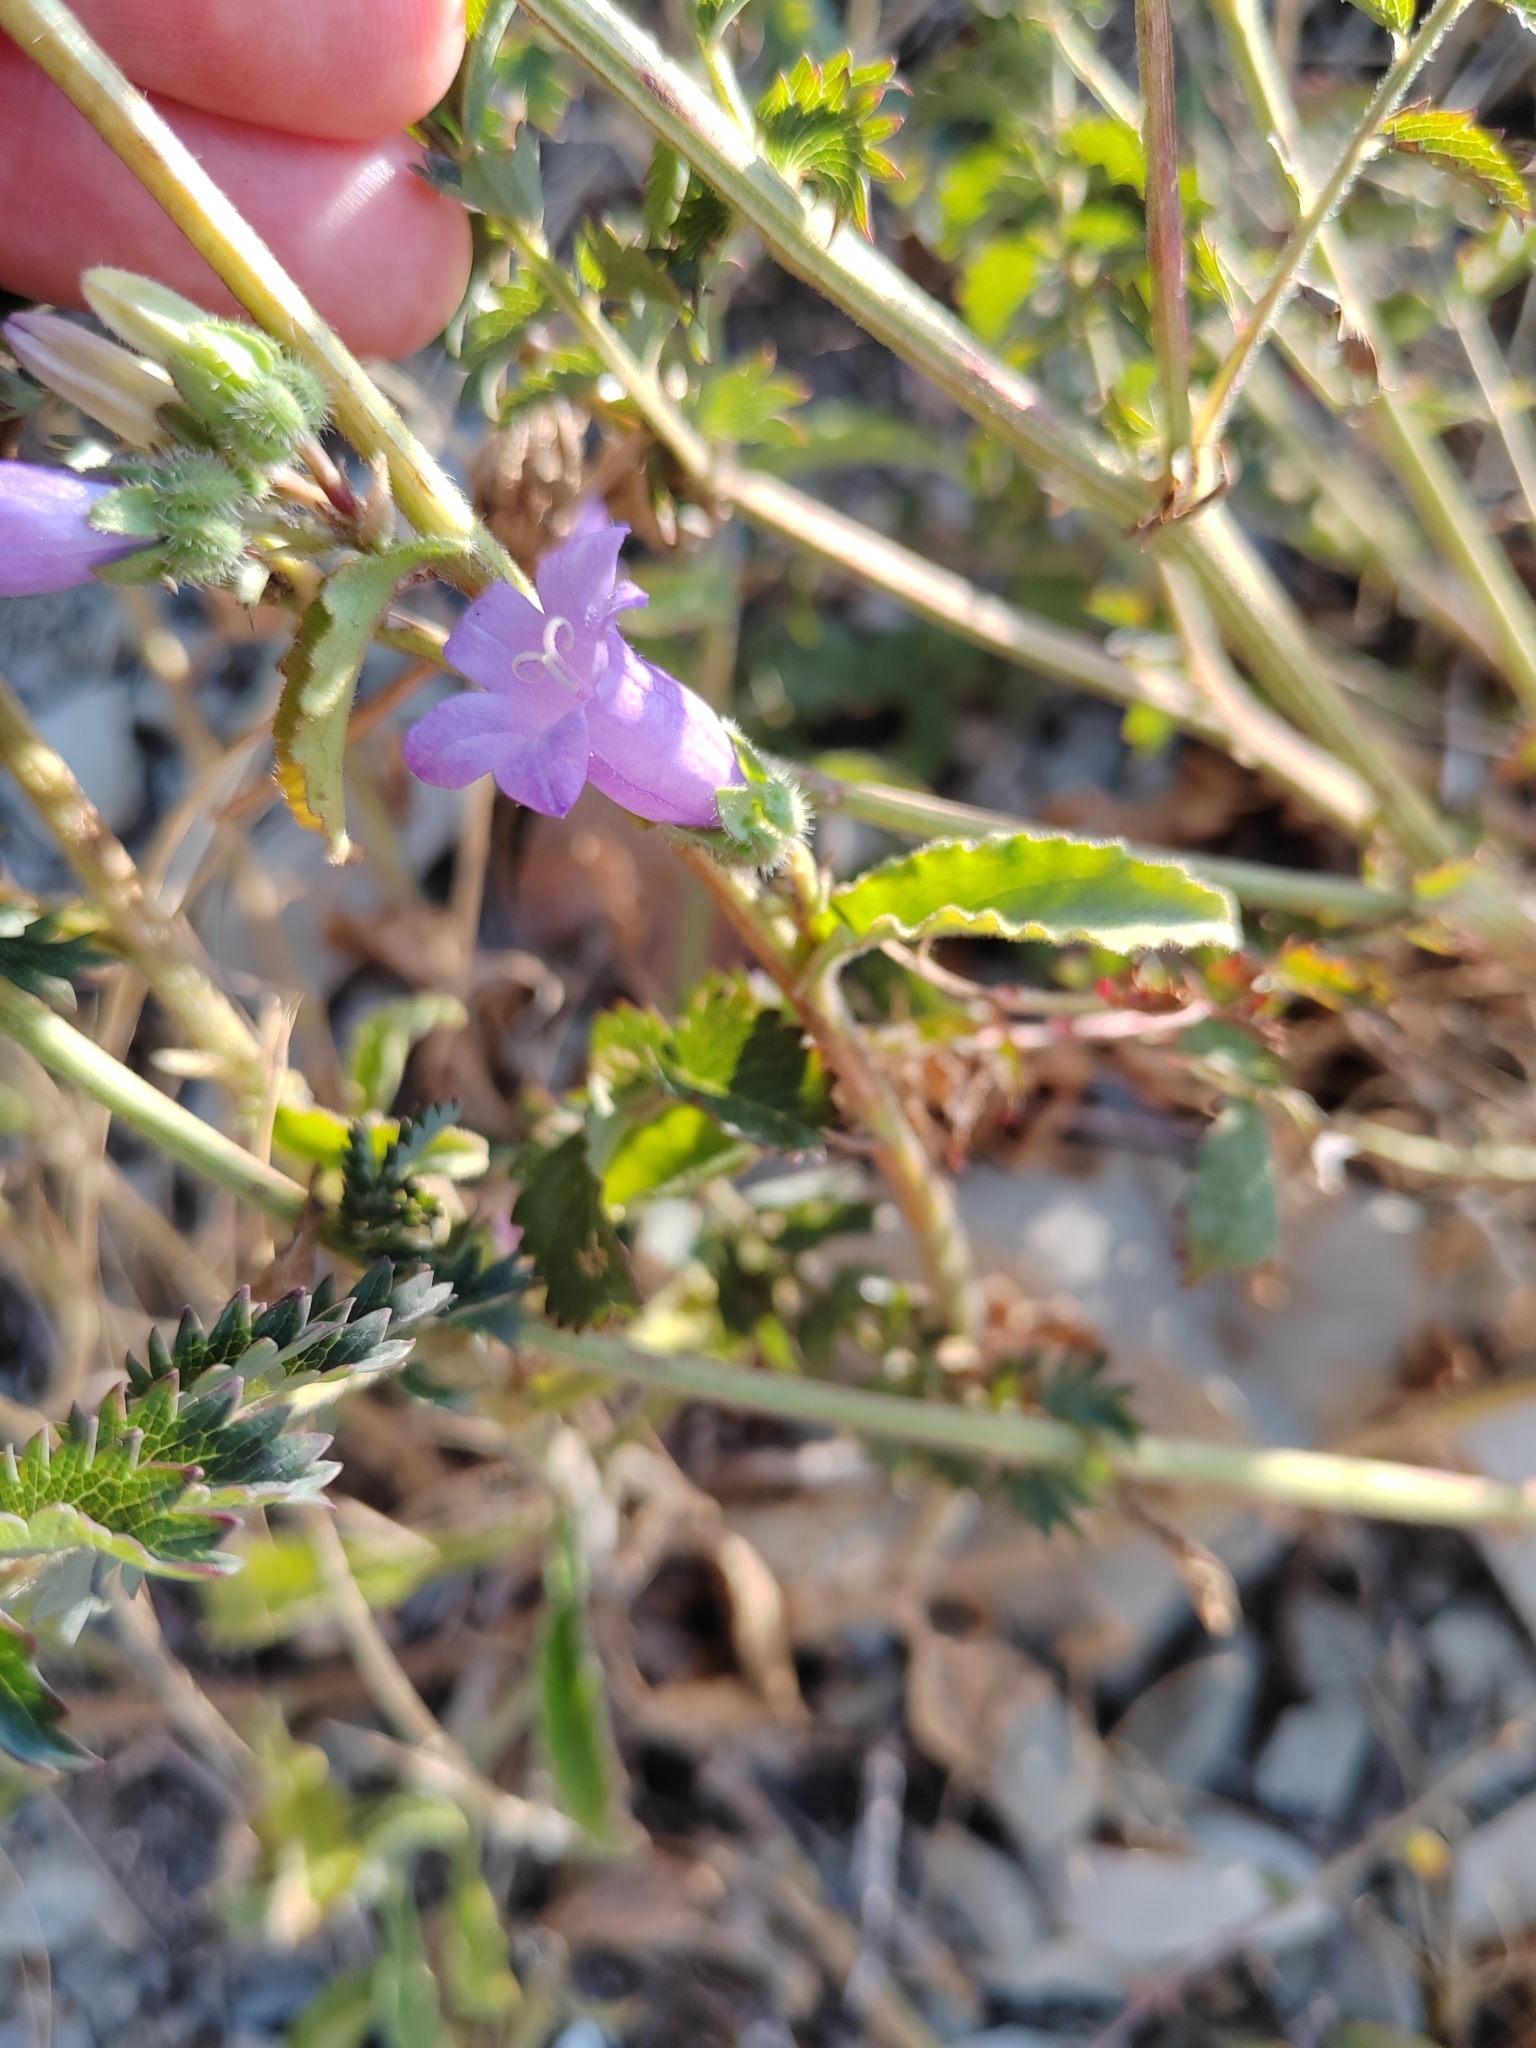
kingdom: Plantae
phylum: Tracheophyta
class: Magnoliopsida
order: Asterales
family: Campanulaceae
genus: Campanula
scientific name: Campanula komarovii
